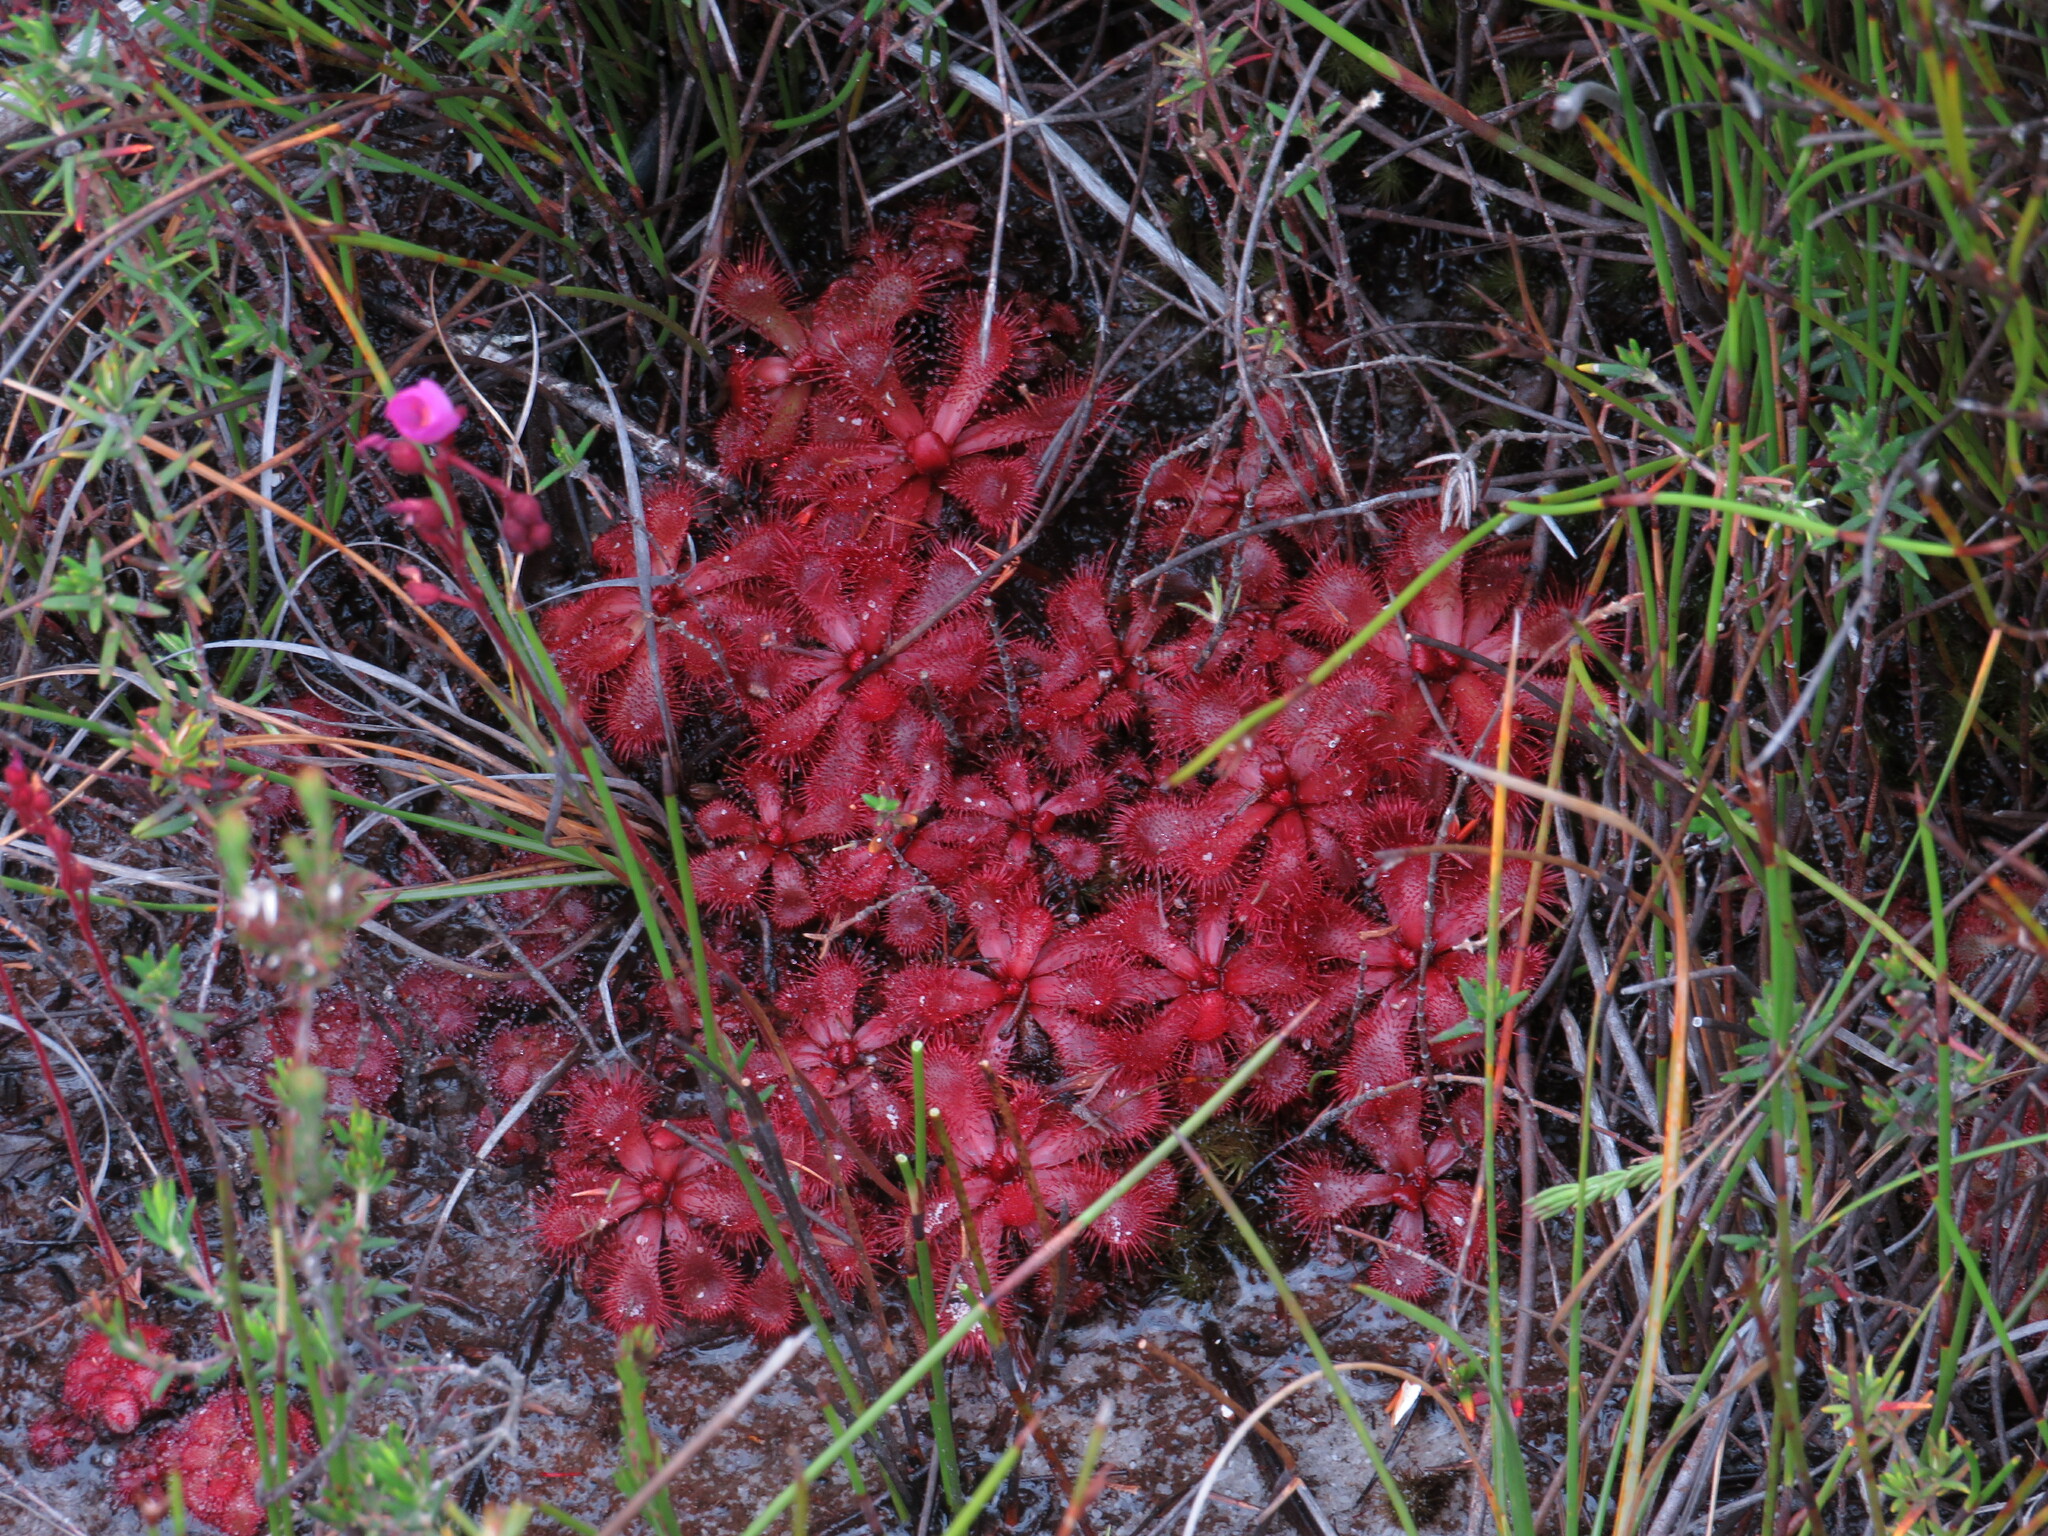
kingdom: Plantae
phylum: Tracheophyta
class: Magnoliopsida
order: Caryophyllales
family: Droseraceae
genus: Drosera
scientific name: Drosera slackii
